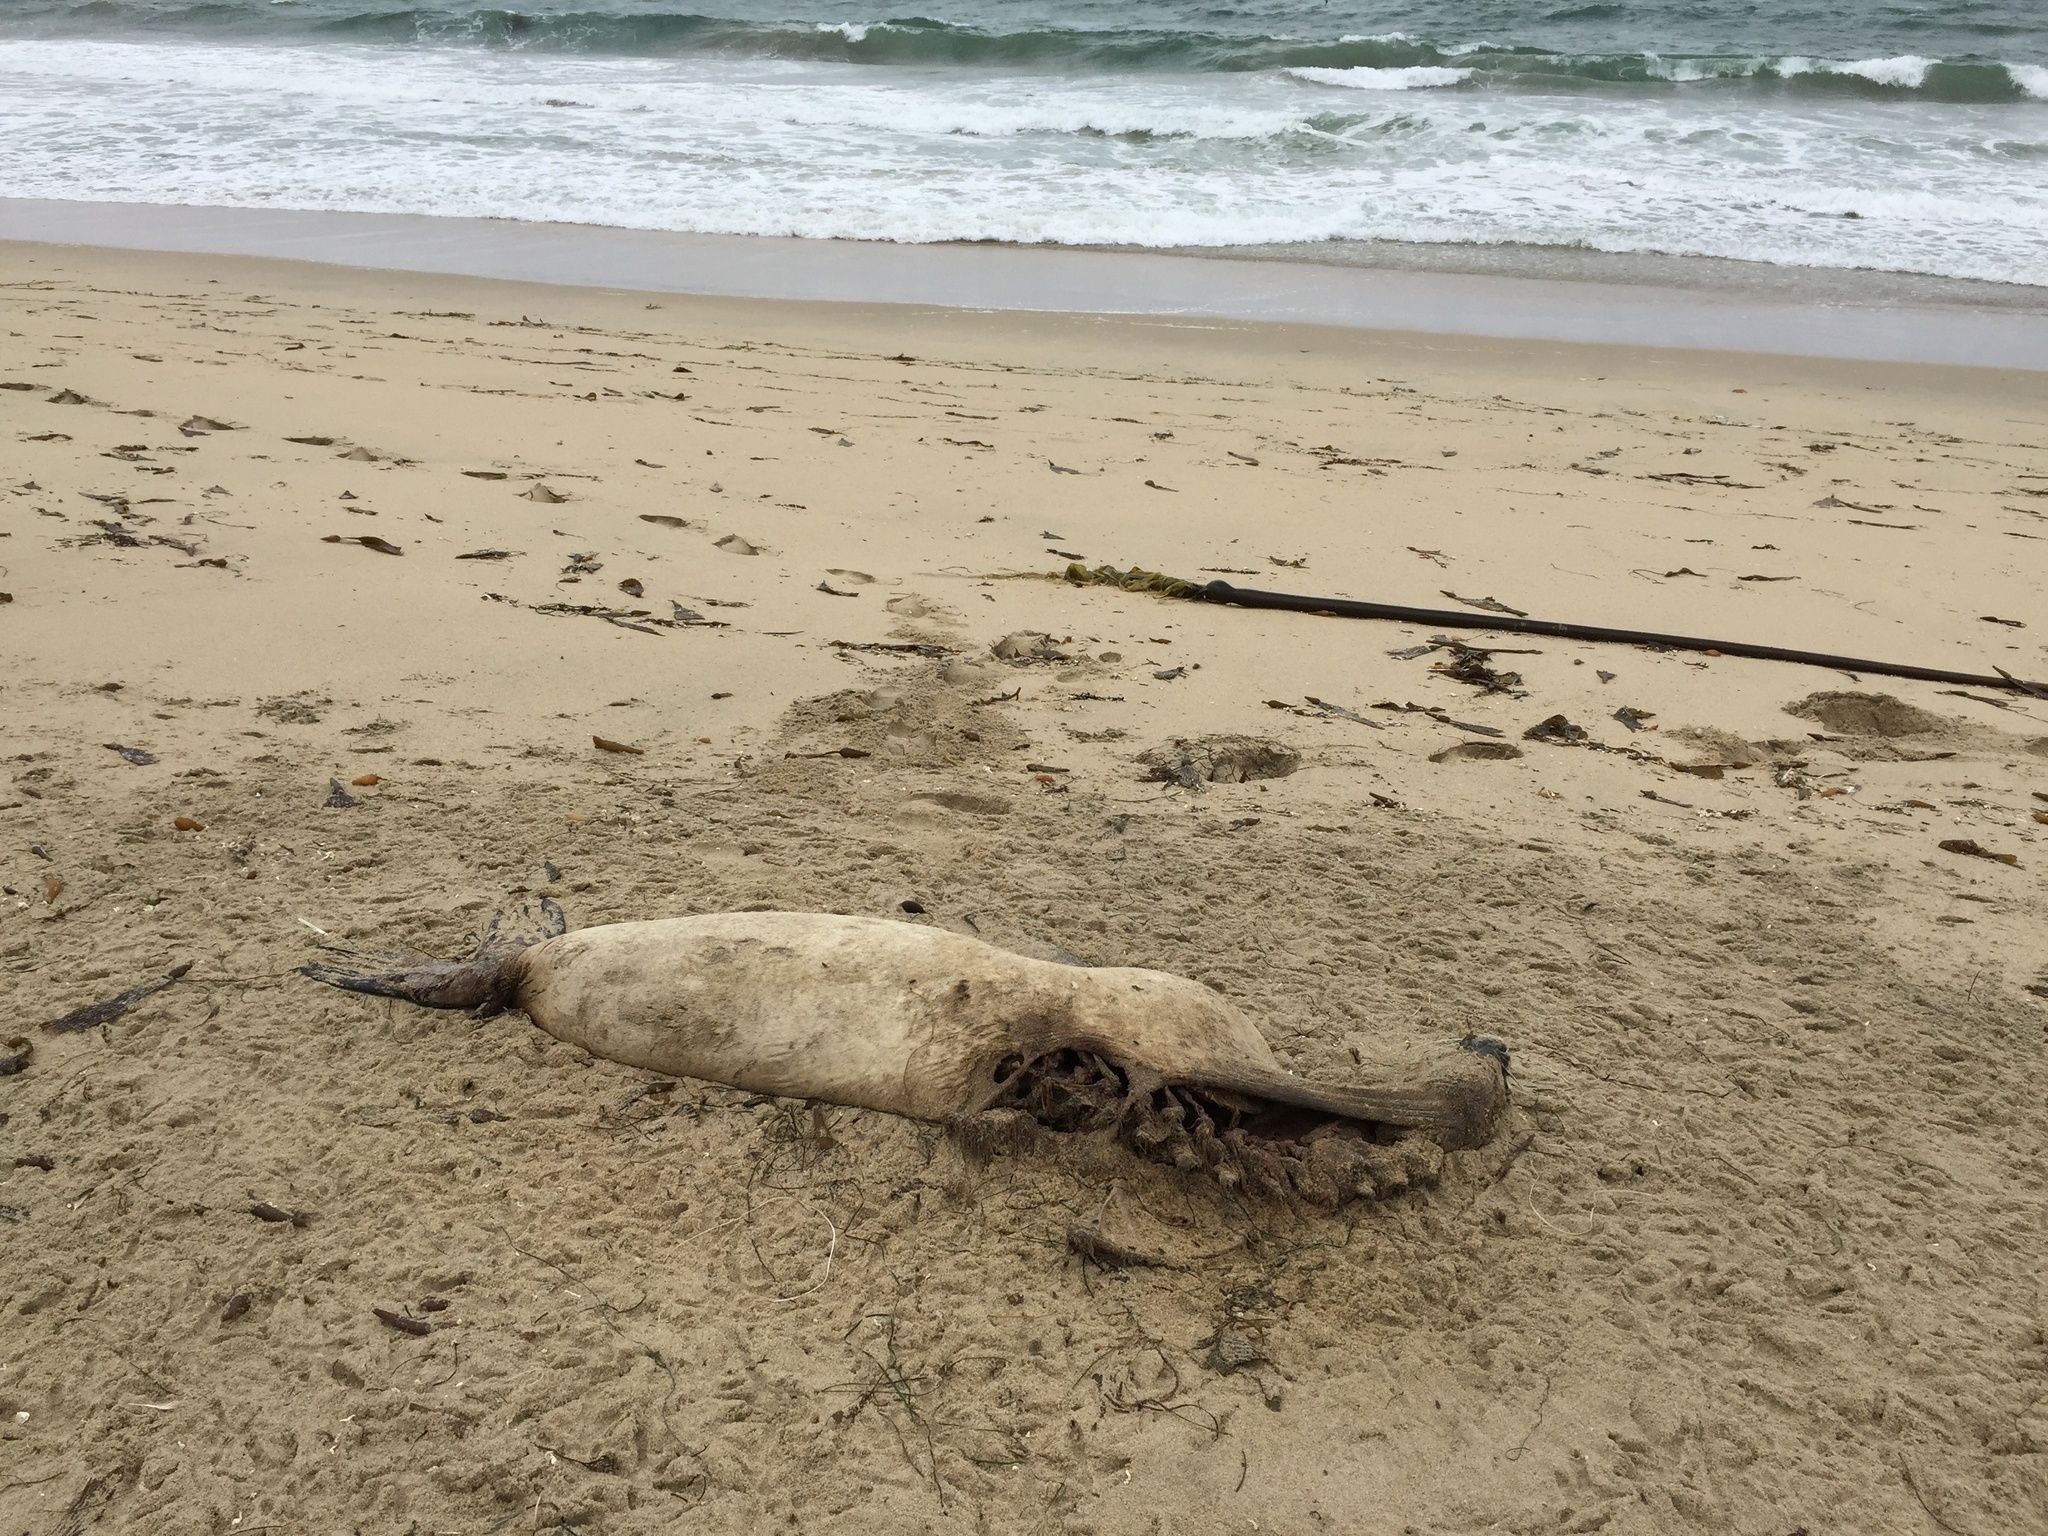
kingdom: Animalia
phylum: Chordata
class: Mammalia
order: Carnivora
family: Otariidae
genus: Zalophus
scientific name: Zalophus californianus
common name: California sea lion
